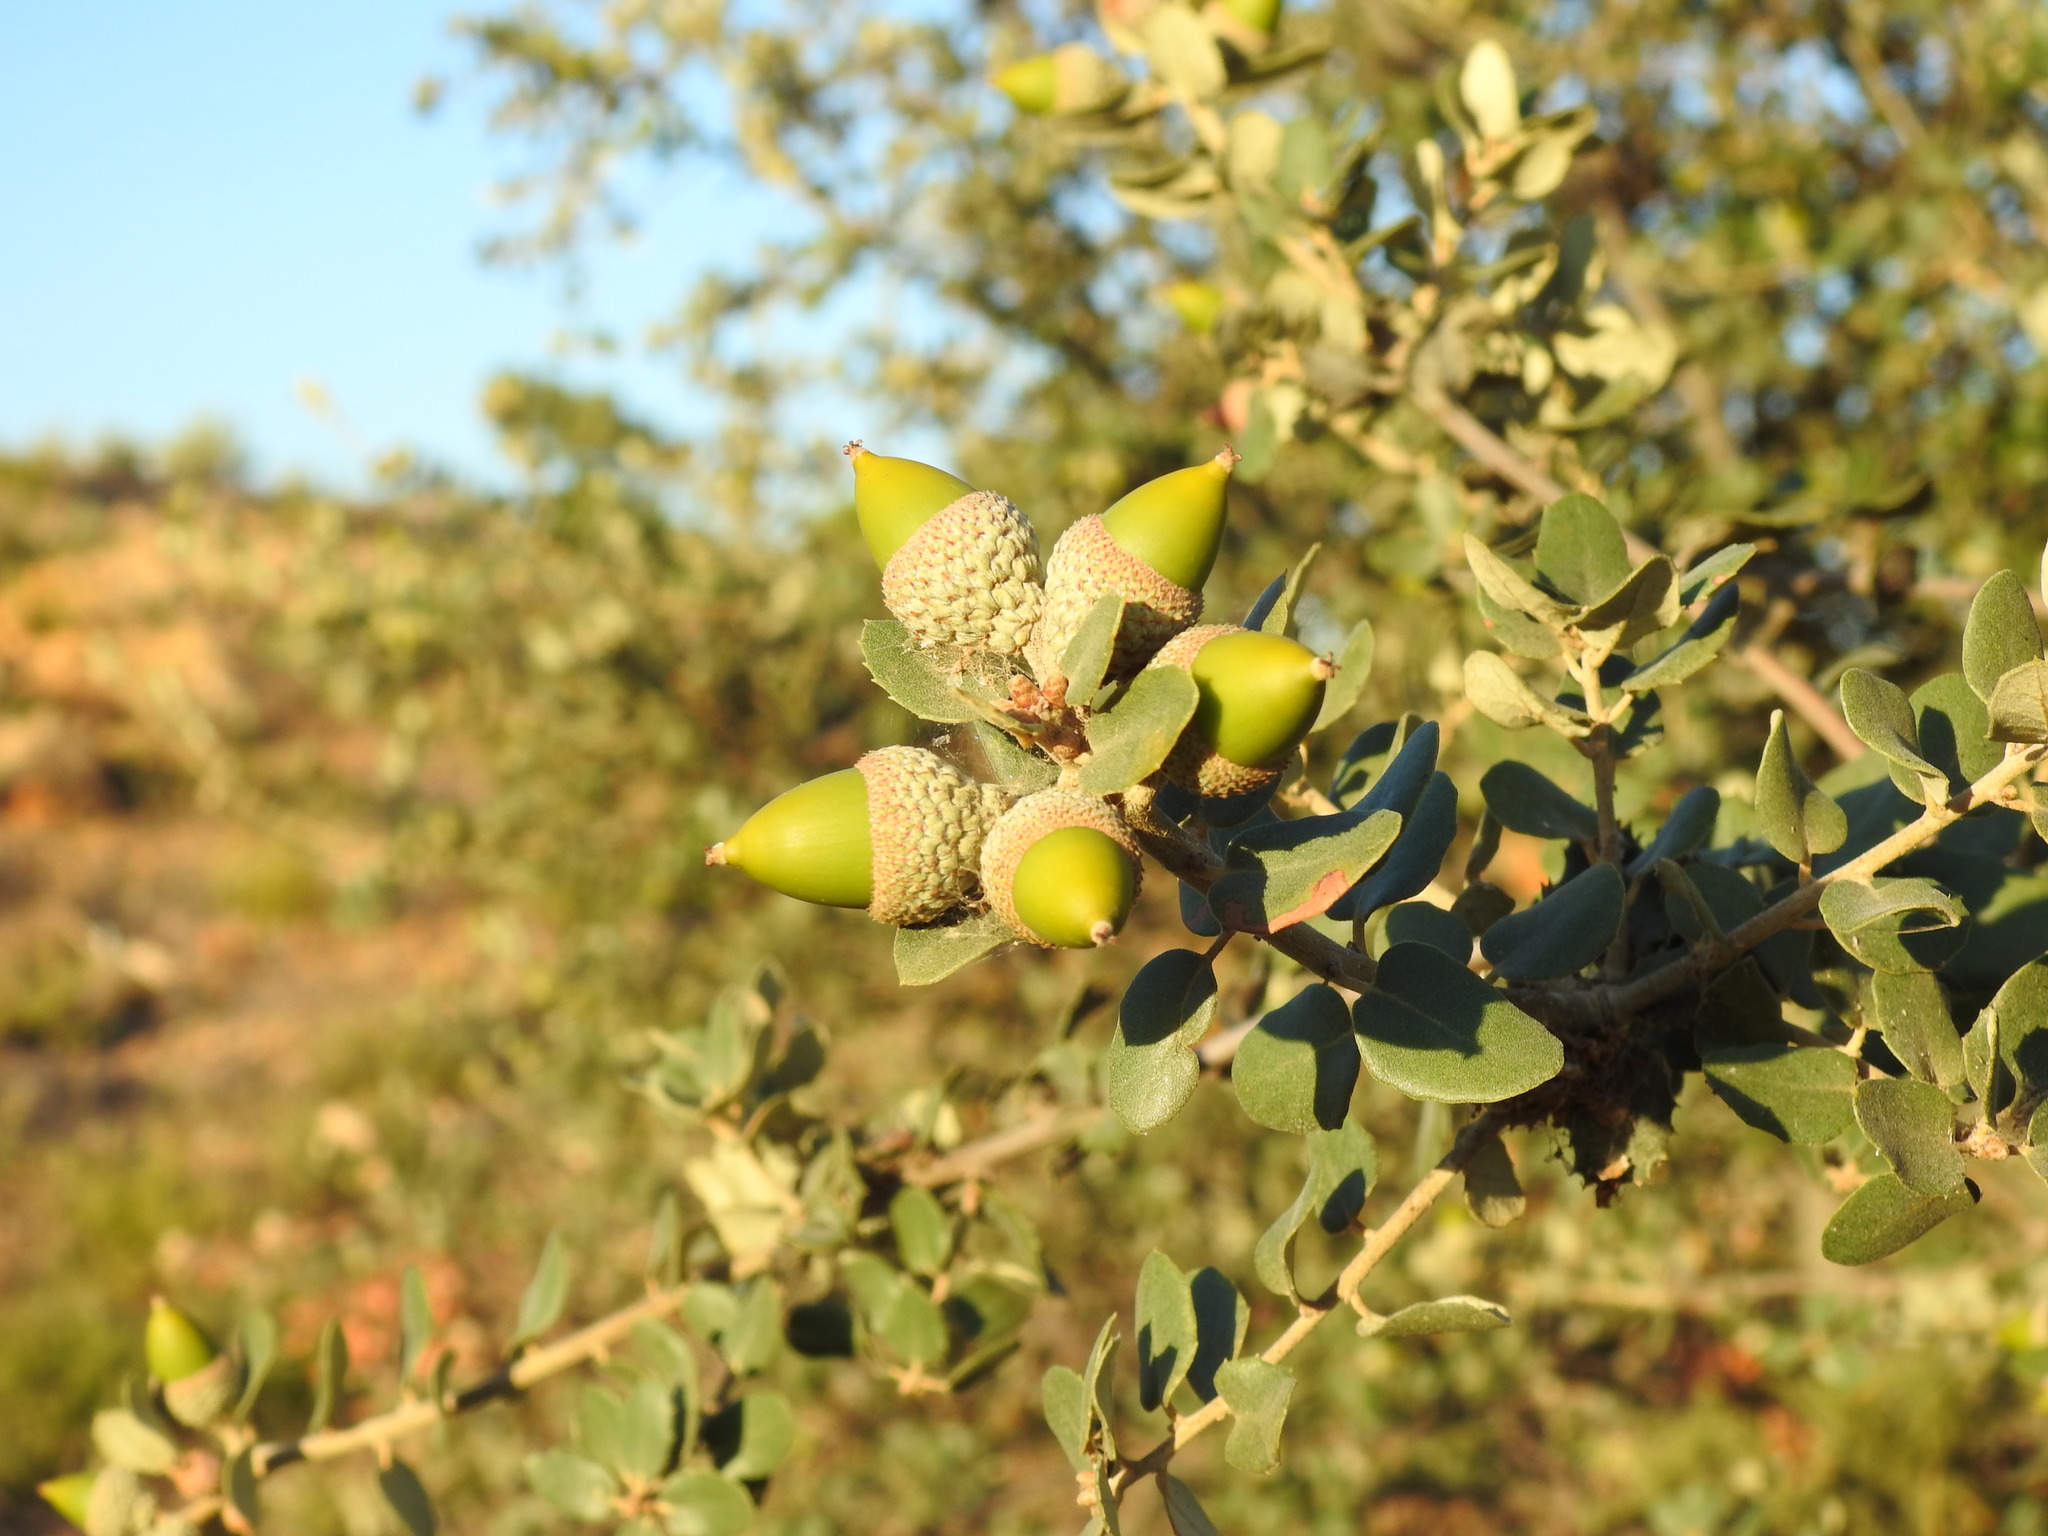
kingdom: Plantae
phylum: Tracheophyta
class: Magnoliopsida
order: Fagales
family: Fagaceae
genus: Quercus
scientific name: Quercus rotundifolia
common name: Holm oak
